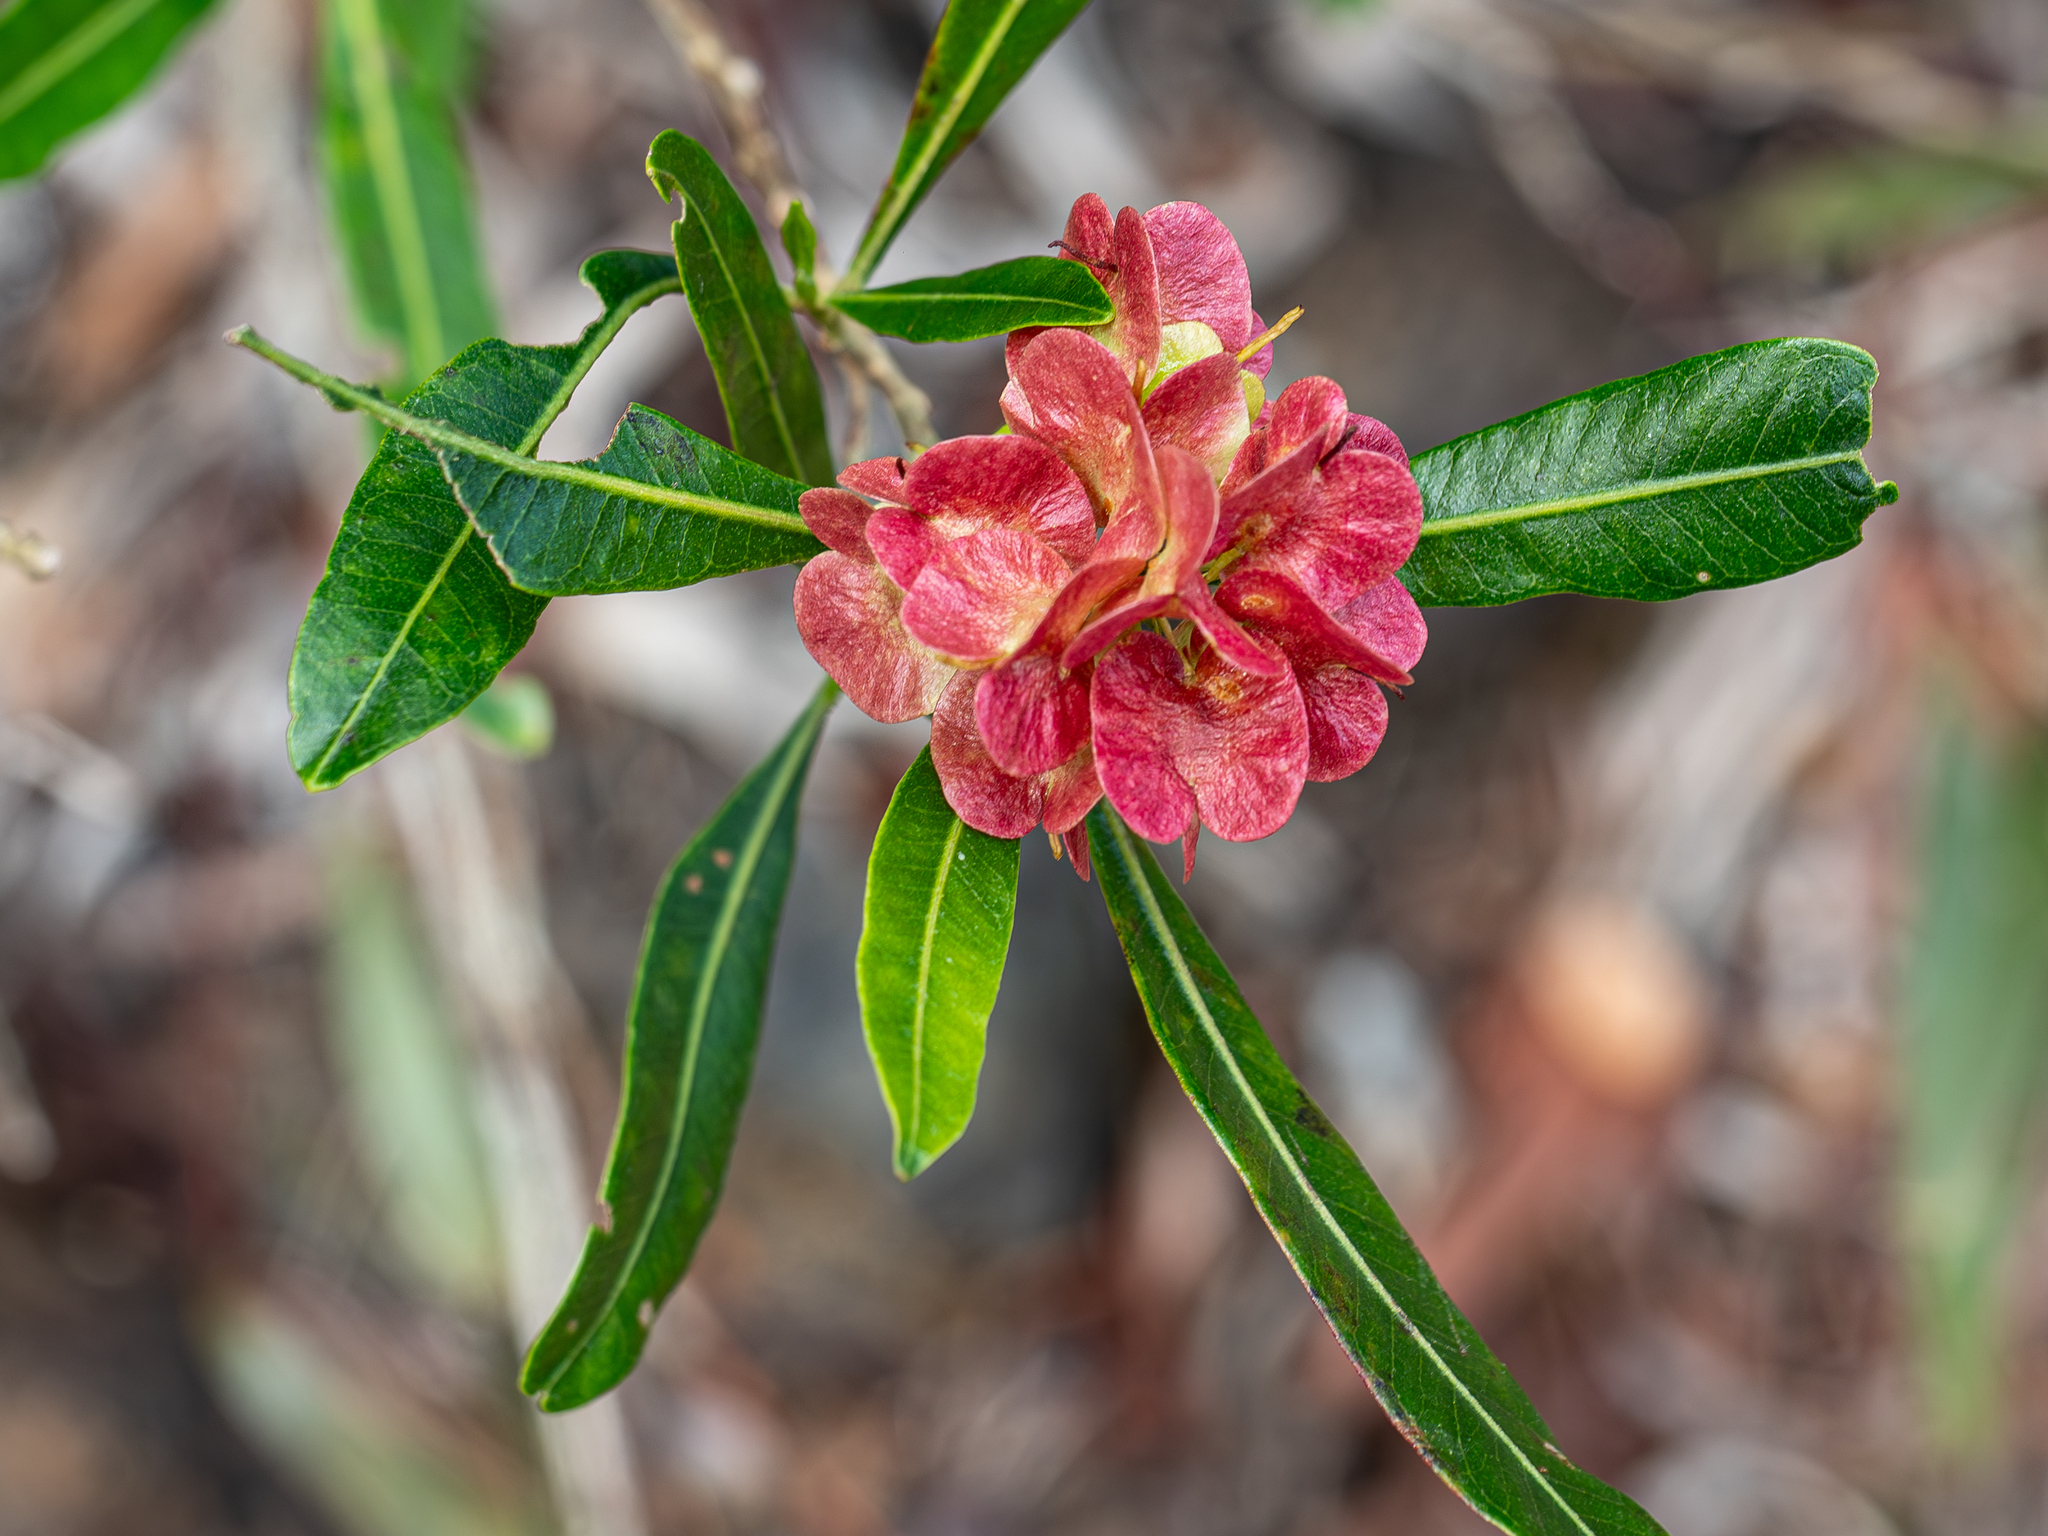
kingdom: Plantae
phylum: Tracheophyta
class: Magnoliopsida
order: Sapindales
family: Sapindaceae
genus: Dodonaea
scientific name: Dodonaea viscosa
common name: Hopbush
